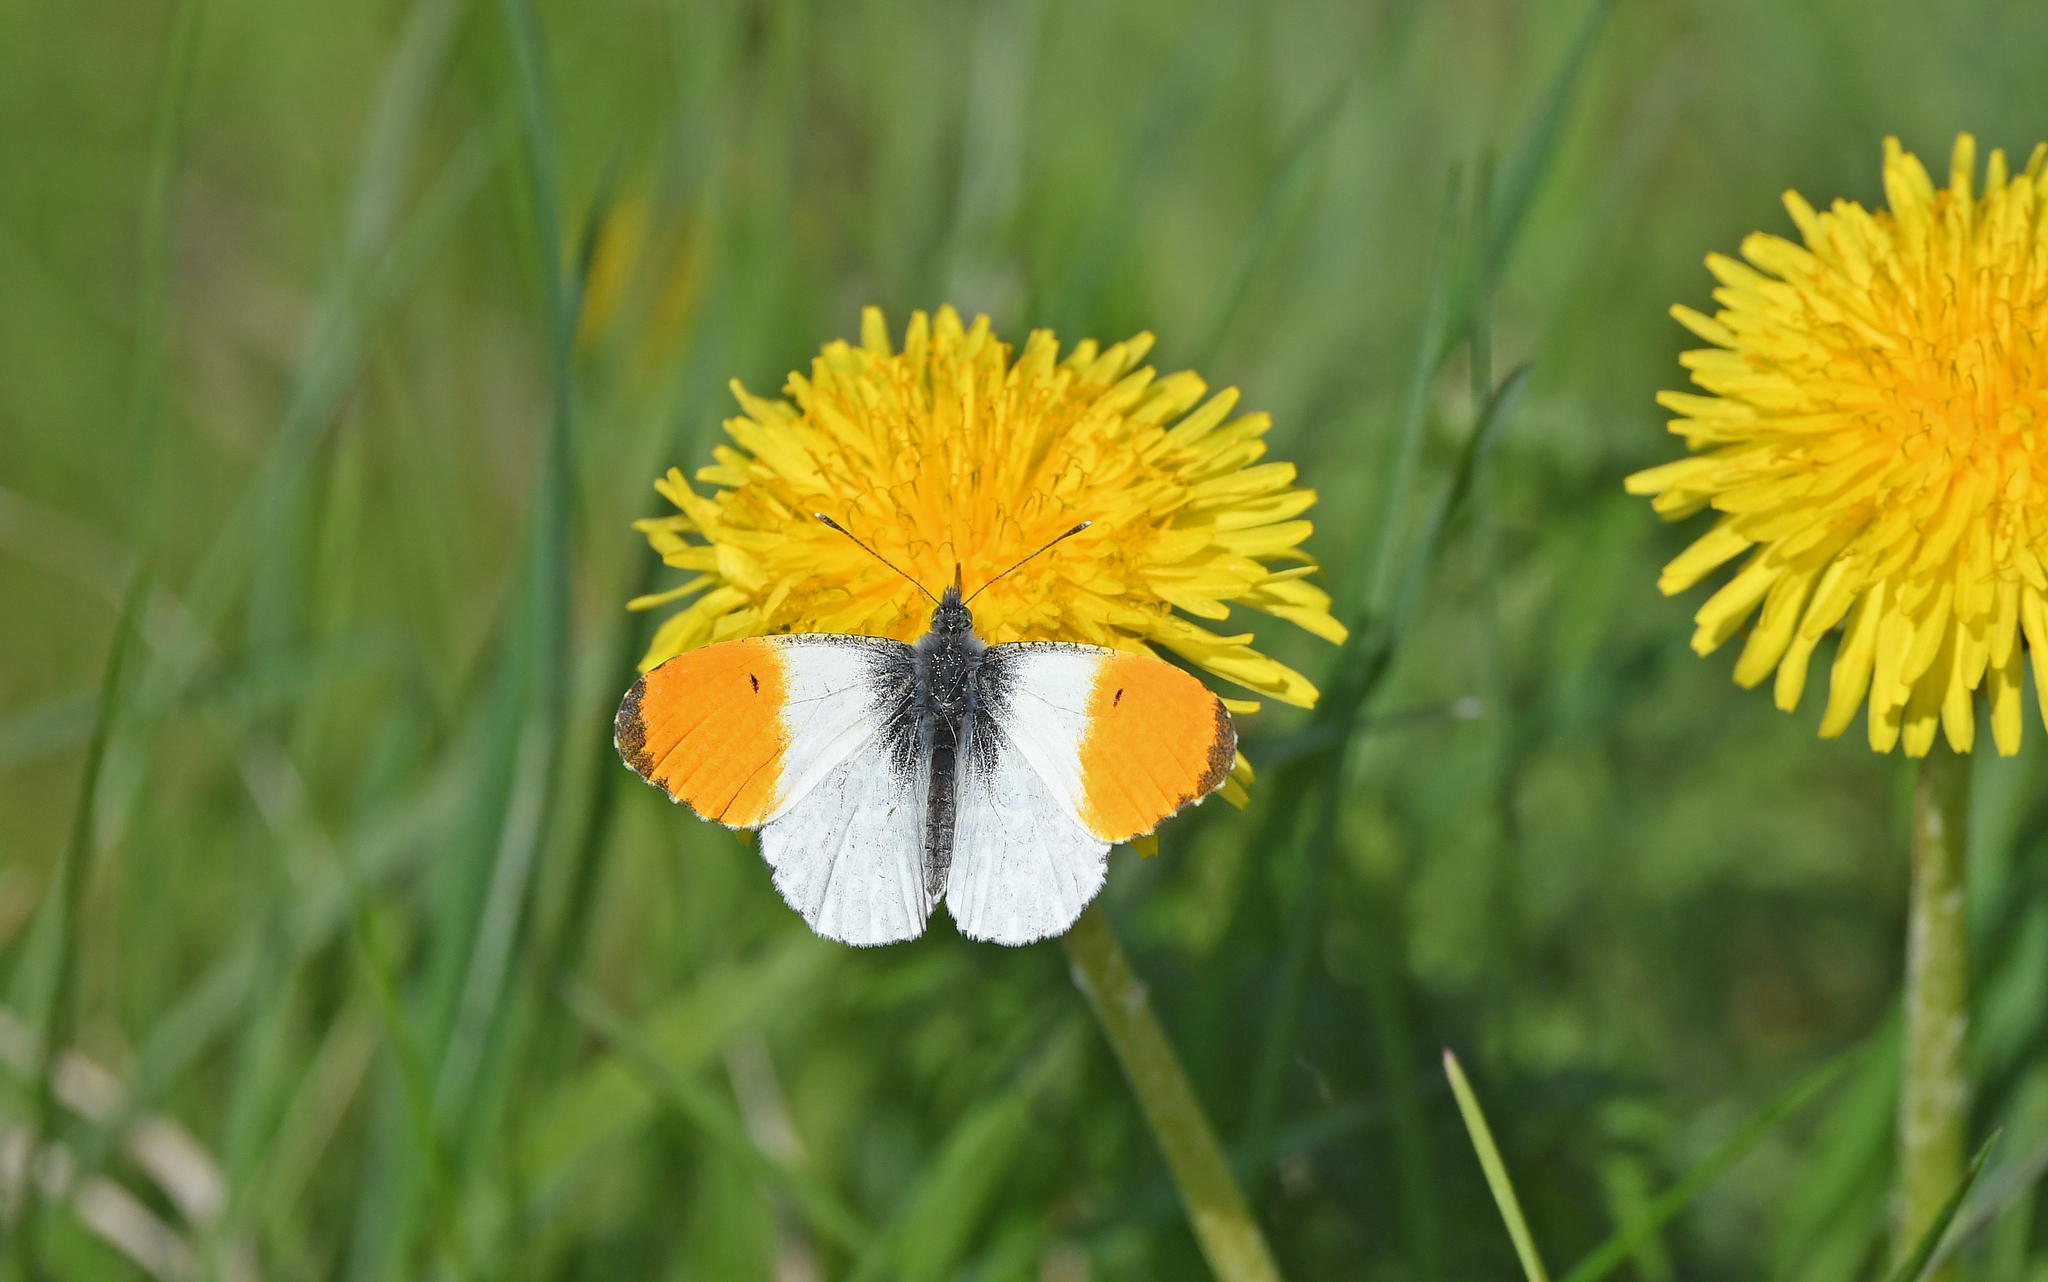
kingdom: Animalia
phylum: Arthropoda
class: Insecta
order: Lepidoptera
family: Pieridae
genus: Anthocharis
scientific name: Anthocharis cardamines
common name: Orange-tip
